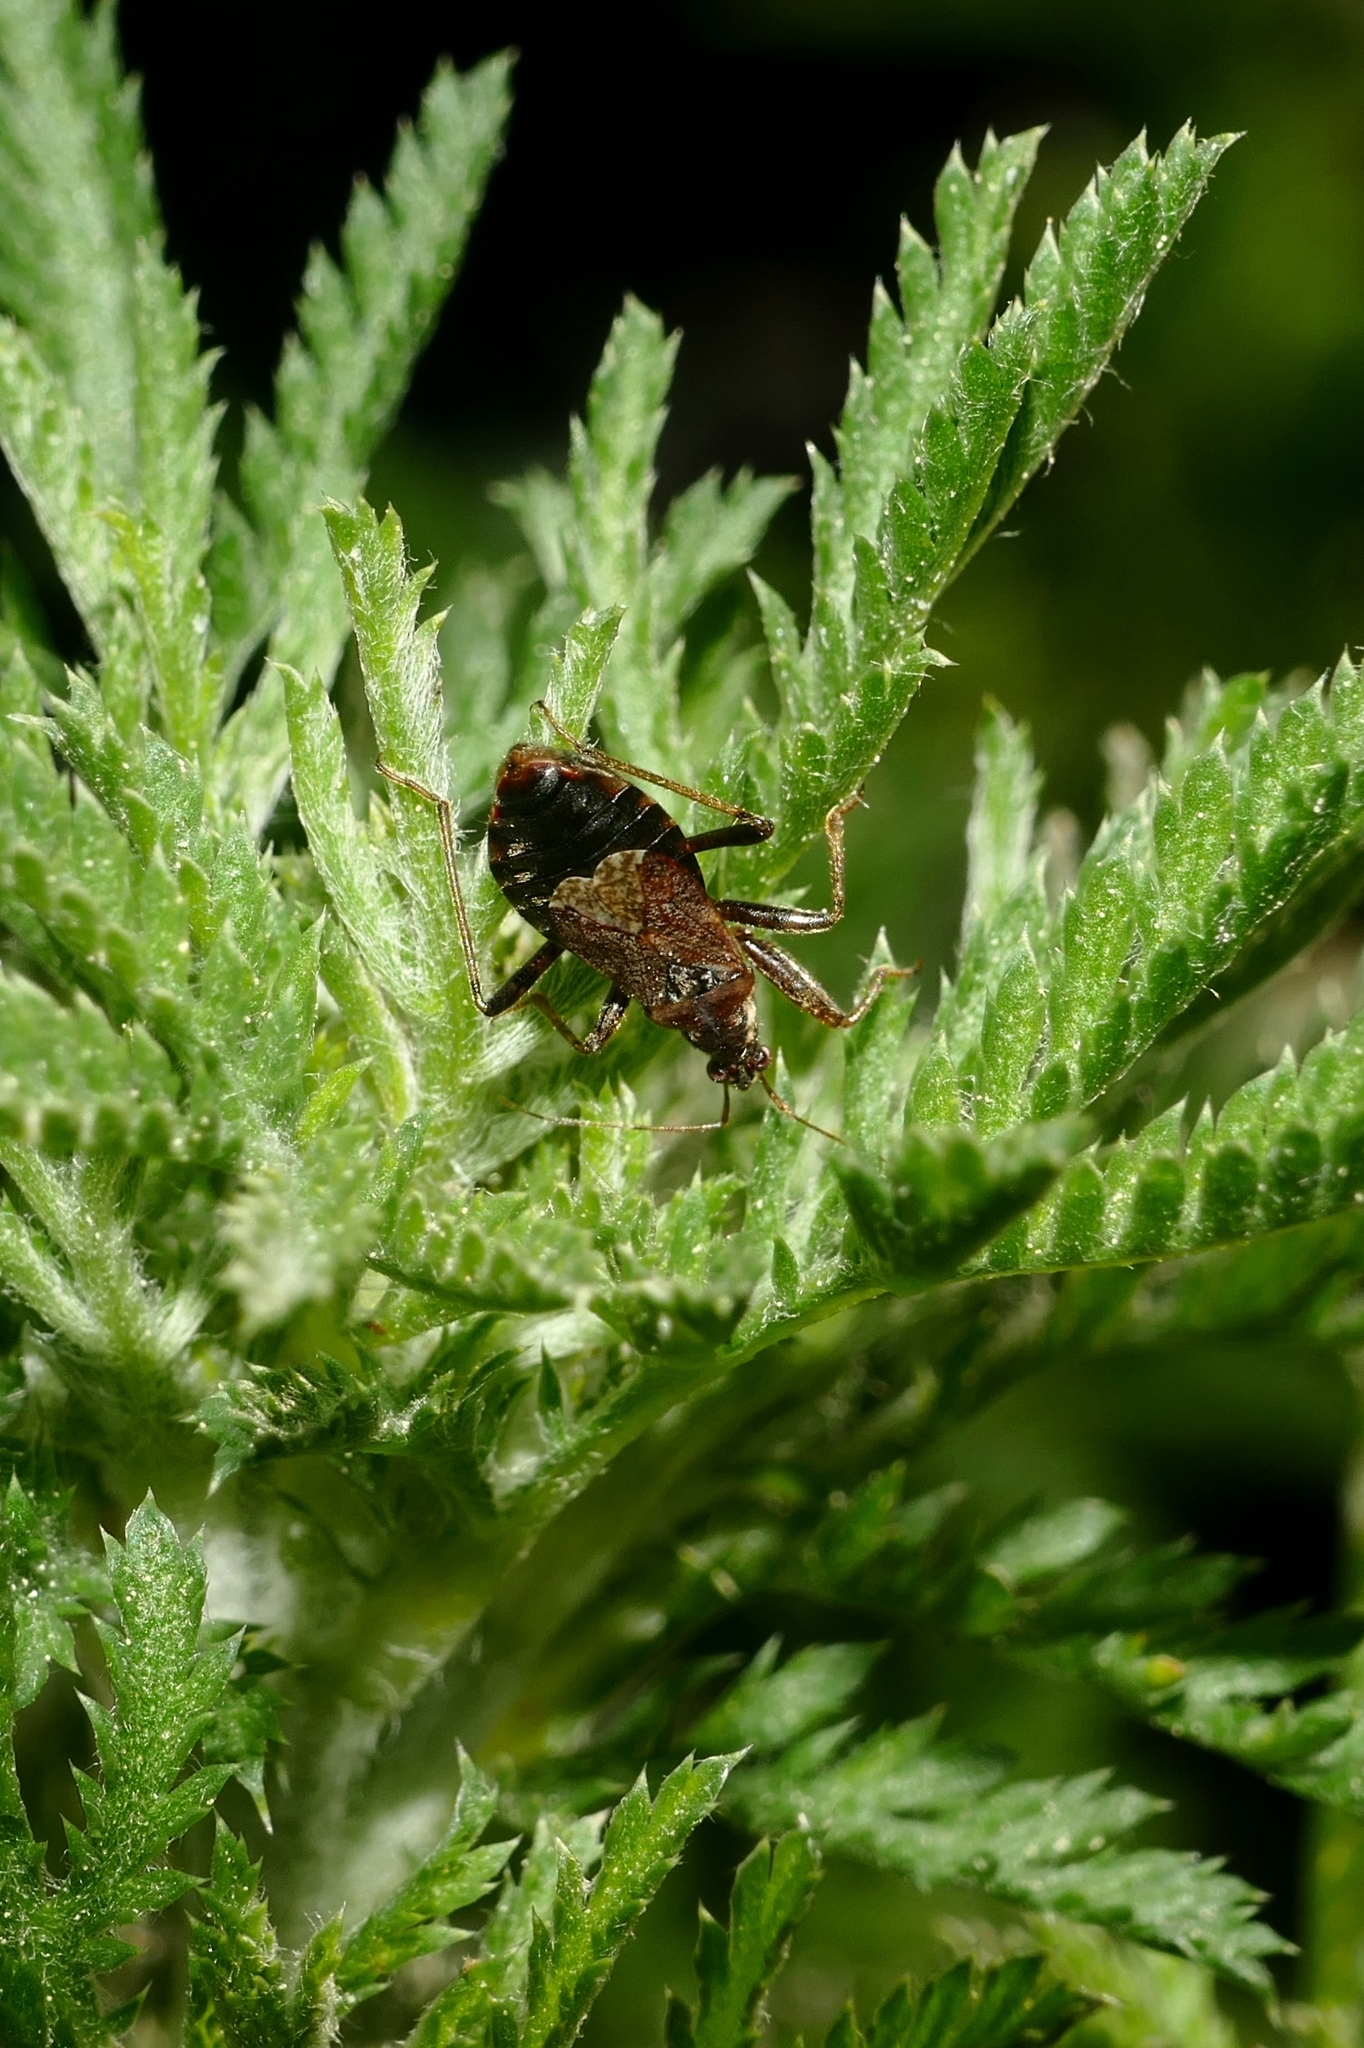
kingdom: Animalia
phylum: Arthropoda
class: Insecta
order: Hemiptera
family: Nabidae
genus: Himacerus
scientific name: Himacerus mirmicoides
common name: Ant damsel bug
